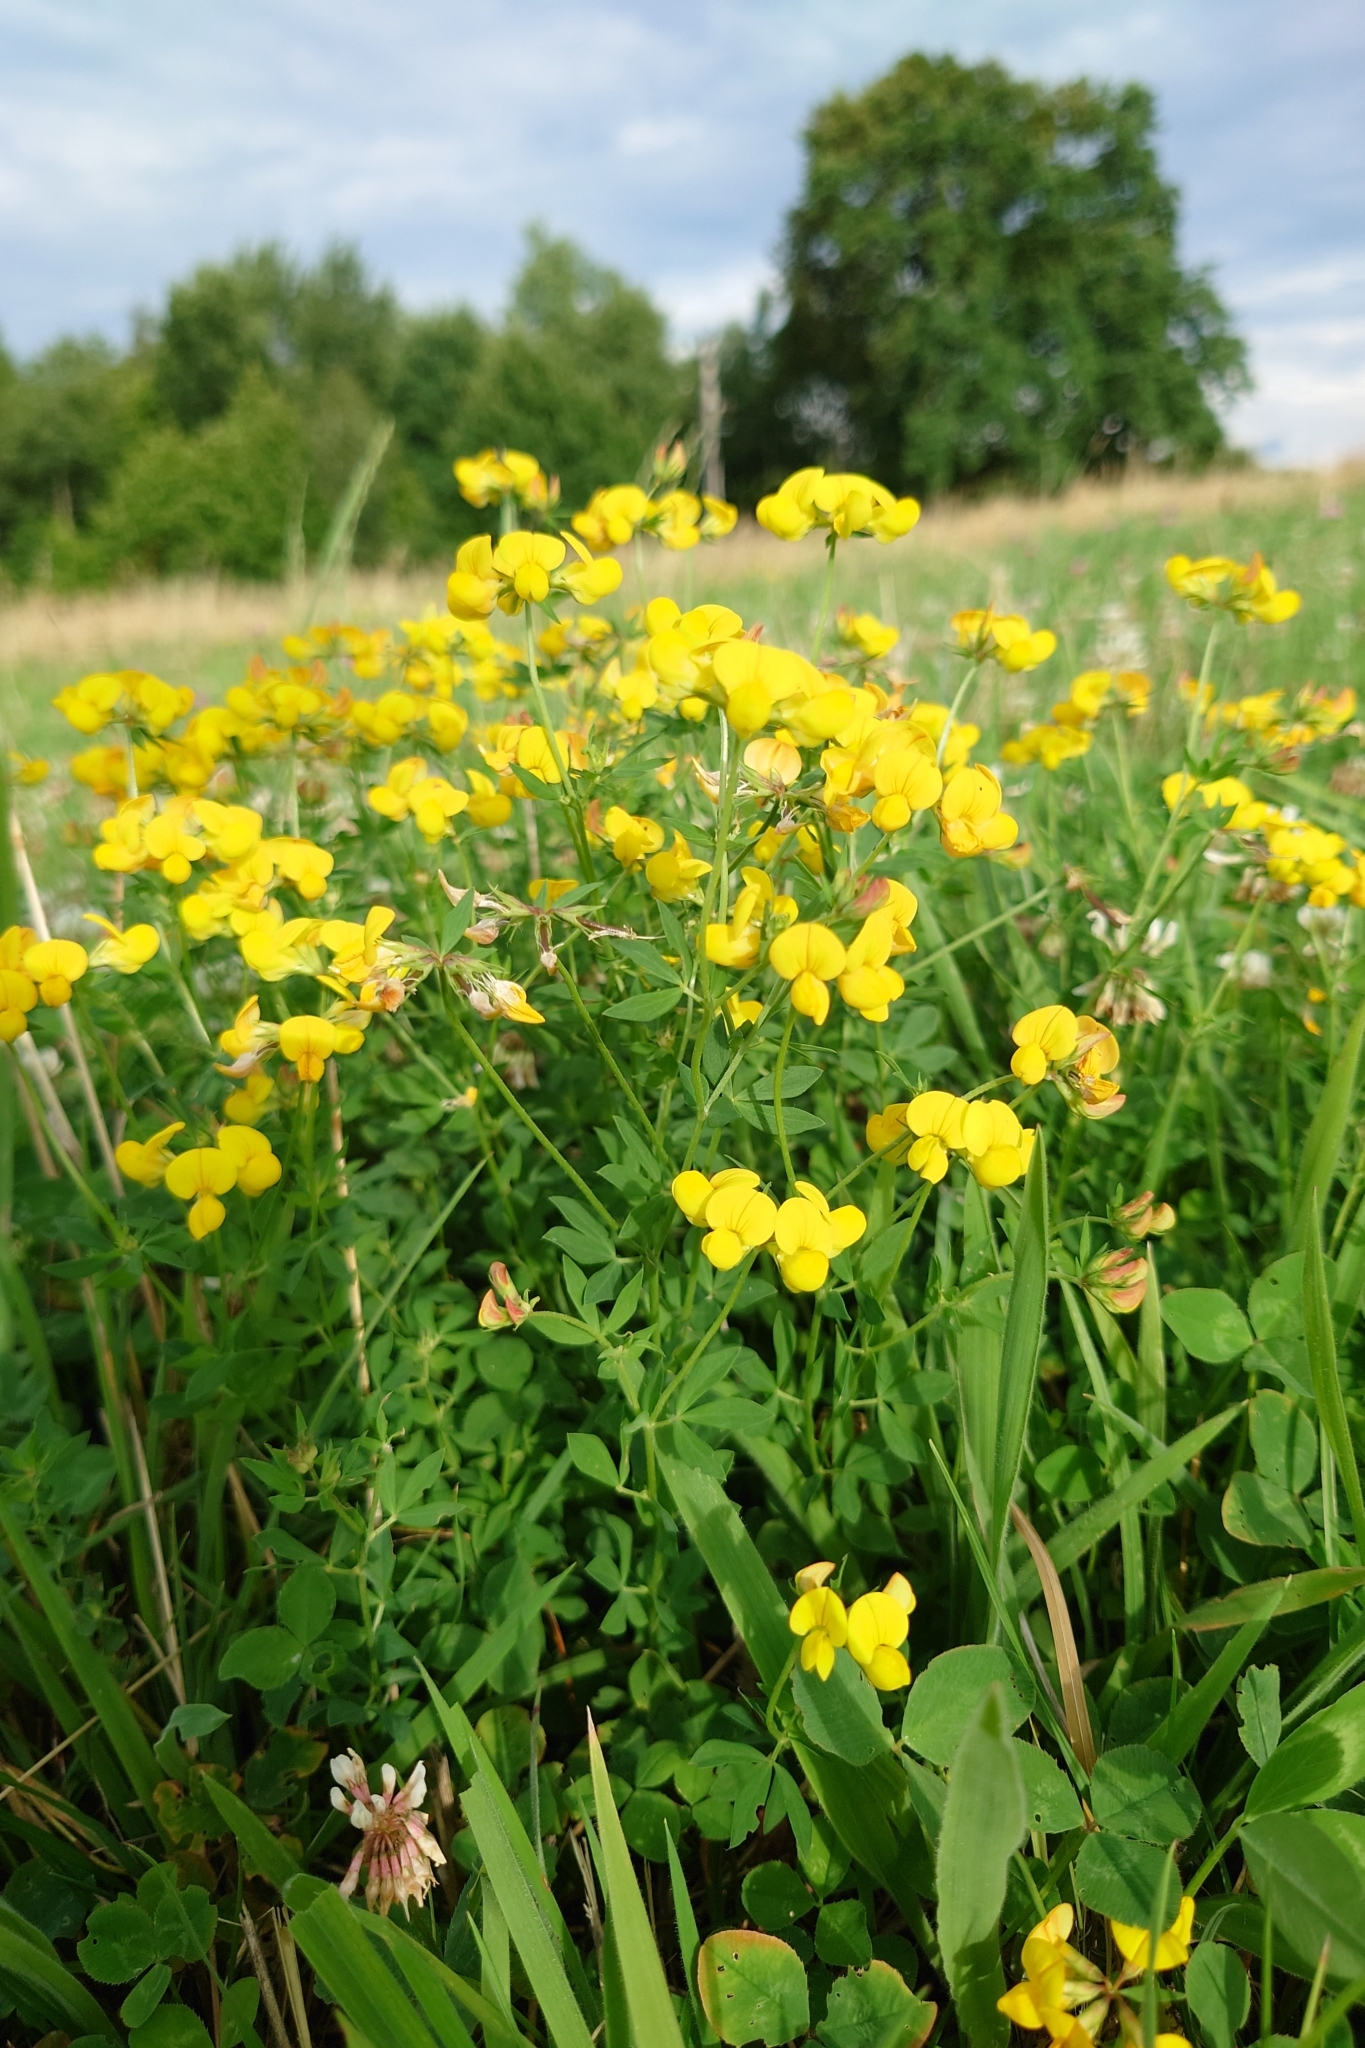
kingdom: Plantae
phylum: Tracheophyta
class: Magnoliopsida
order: Fabales
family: Fabaceae
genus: Lotus
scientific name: Lotus corniculatus
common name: Common bird's-foot-trefoil
